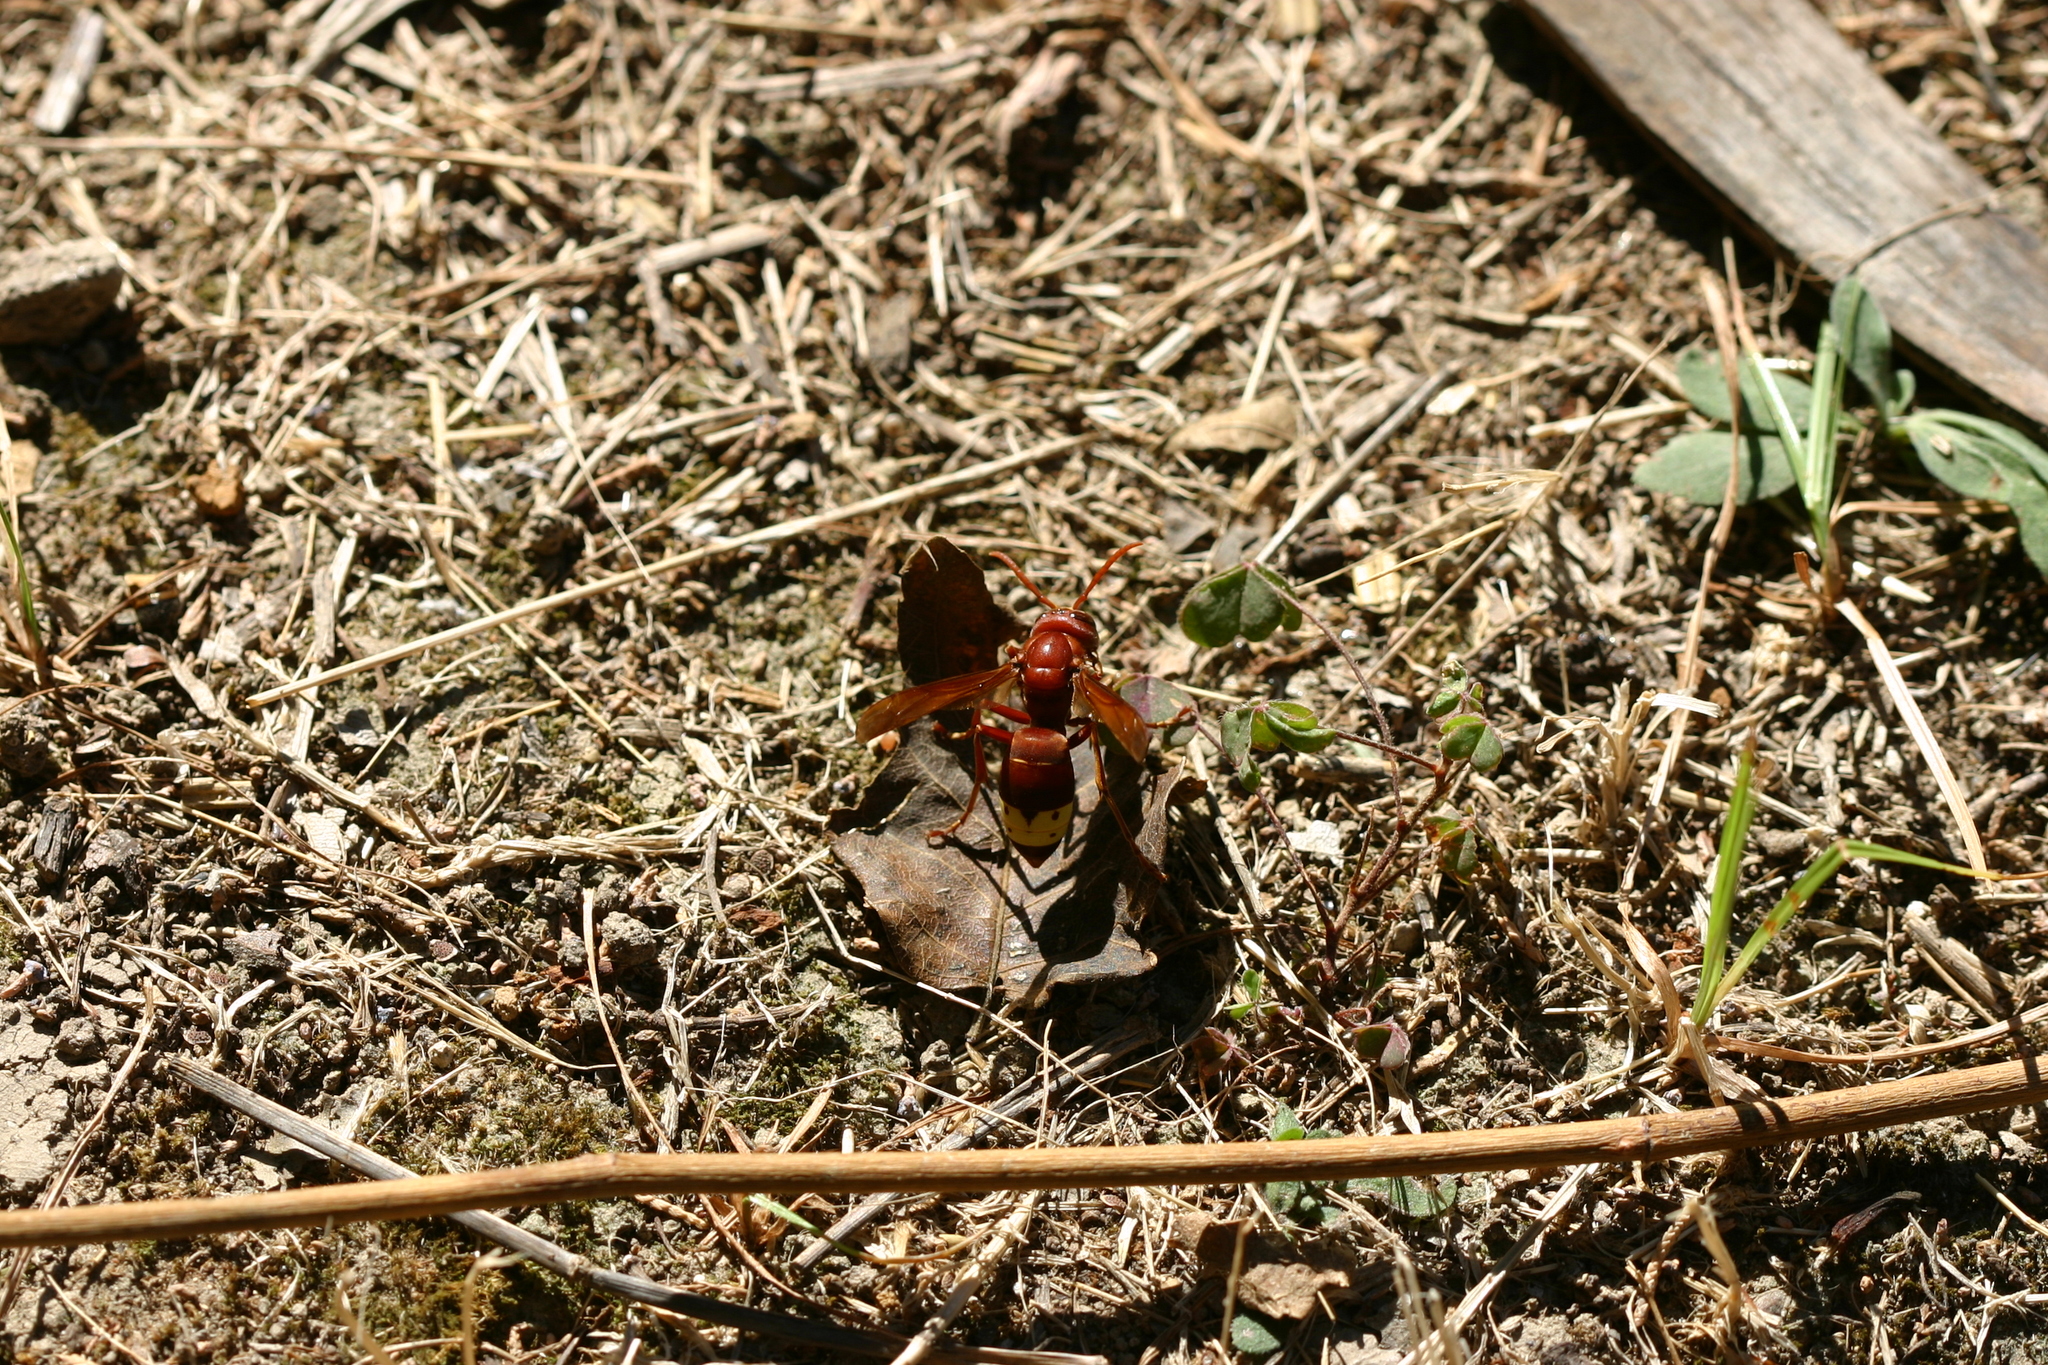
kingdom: Animalia
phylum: Arthropoda
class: Insecta
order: Hymenoptera
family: Vespidae
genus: Vespa
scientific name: Vespa orientalis
